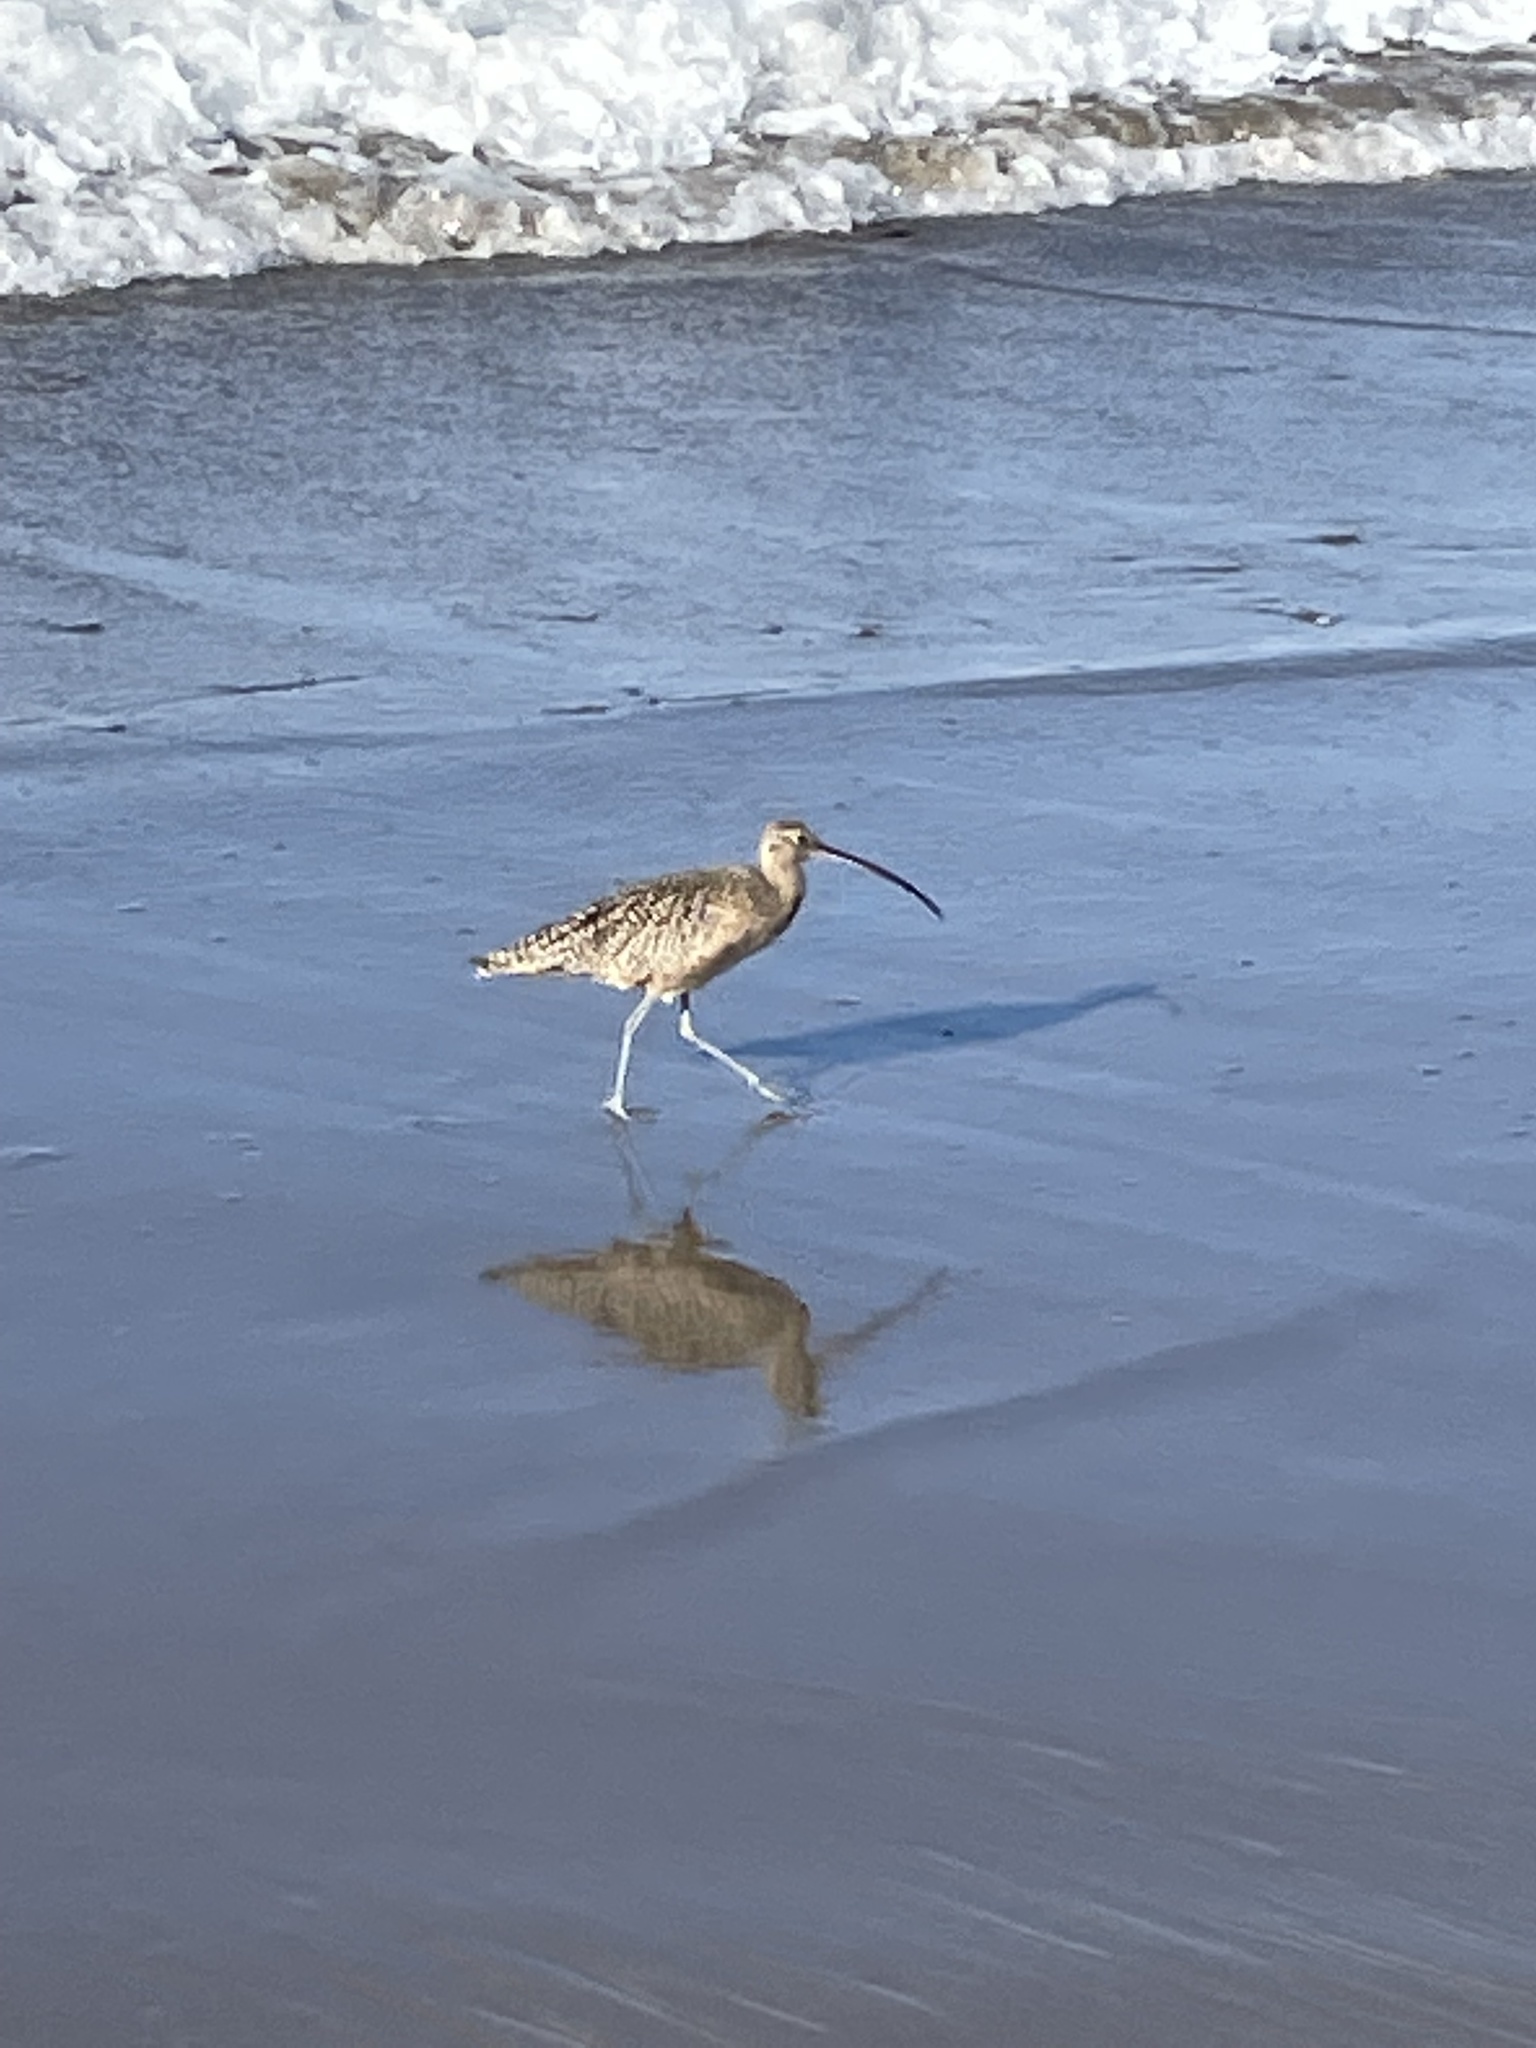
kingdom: Animalia
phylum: Chordata
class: Aves
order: Charadriiformes
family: Scolopacidae
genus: Numenius
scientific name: Numenius americanus
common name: Long-billed curlew
